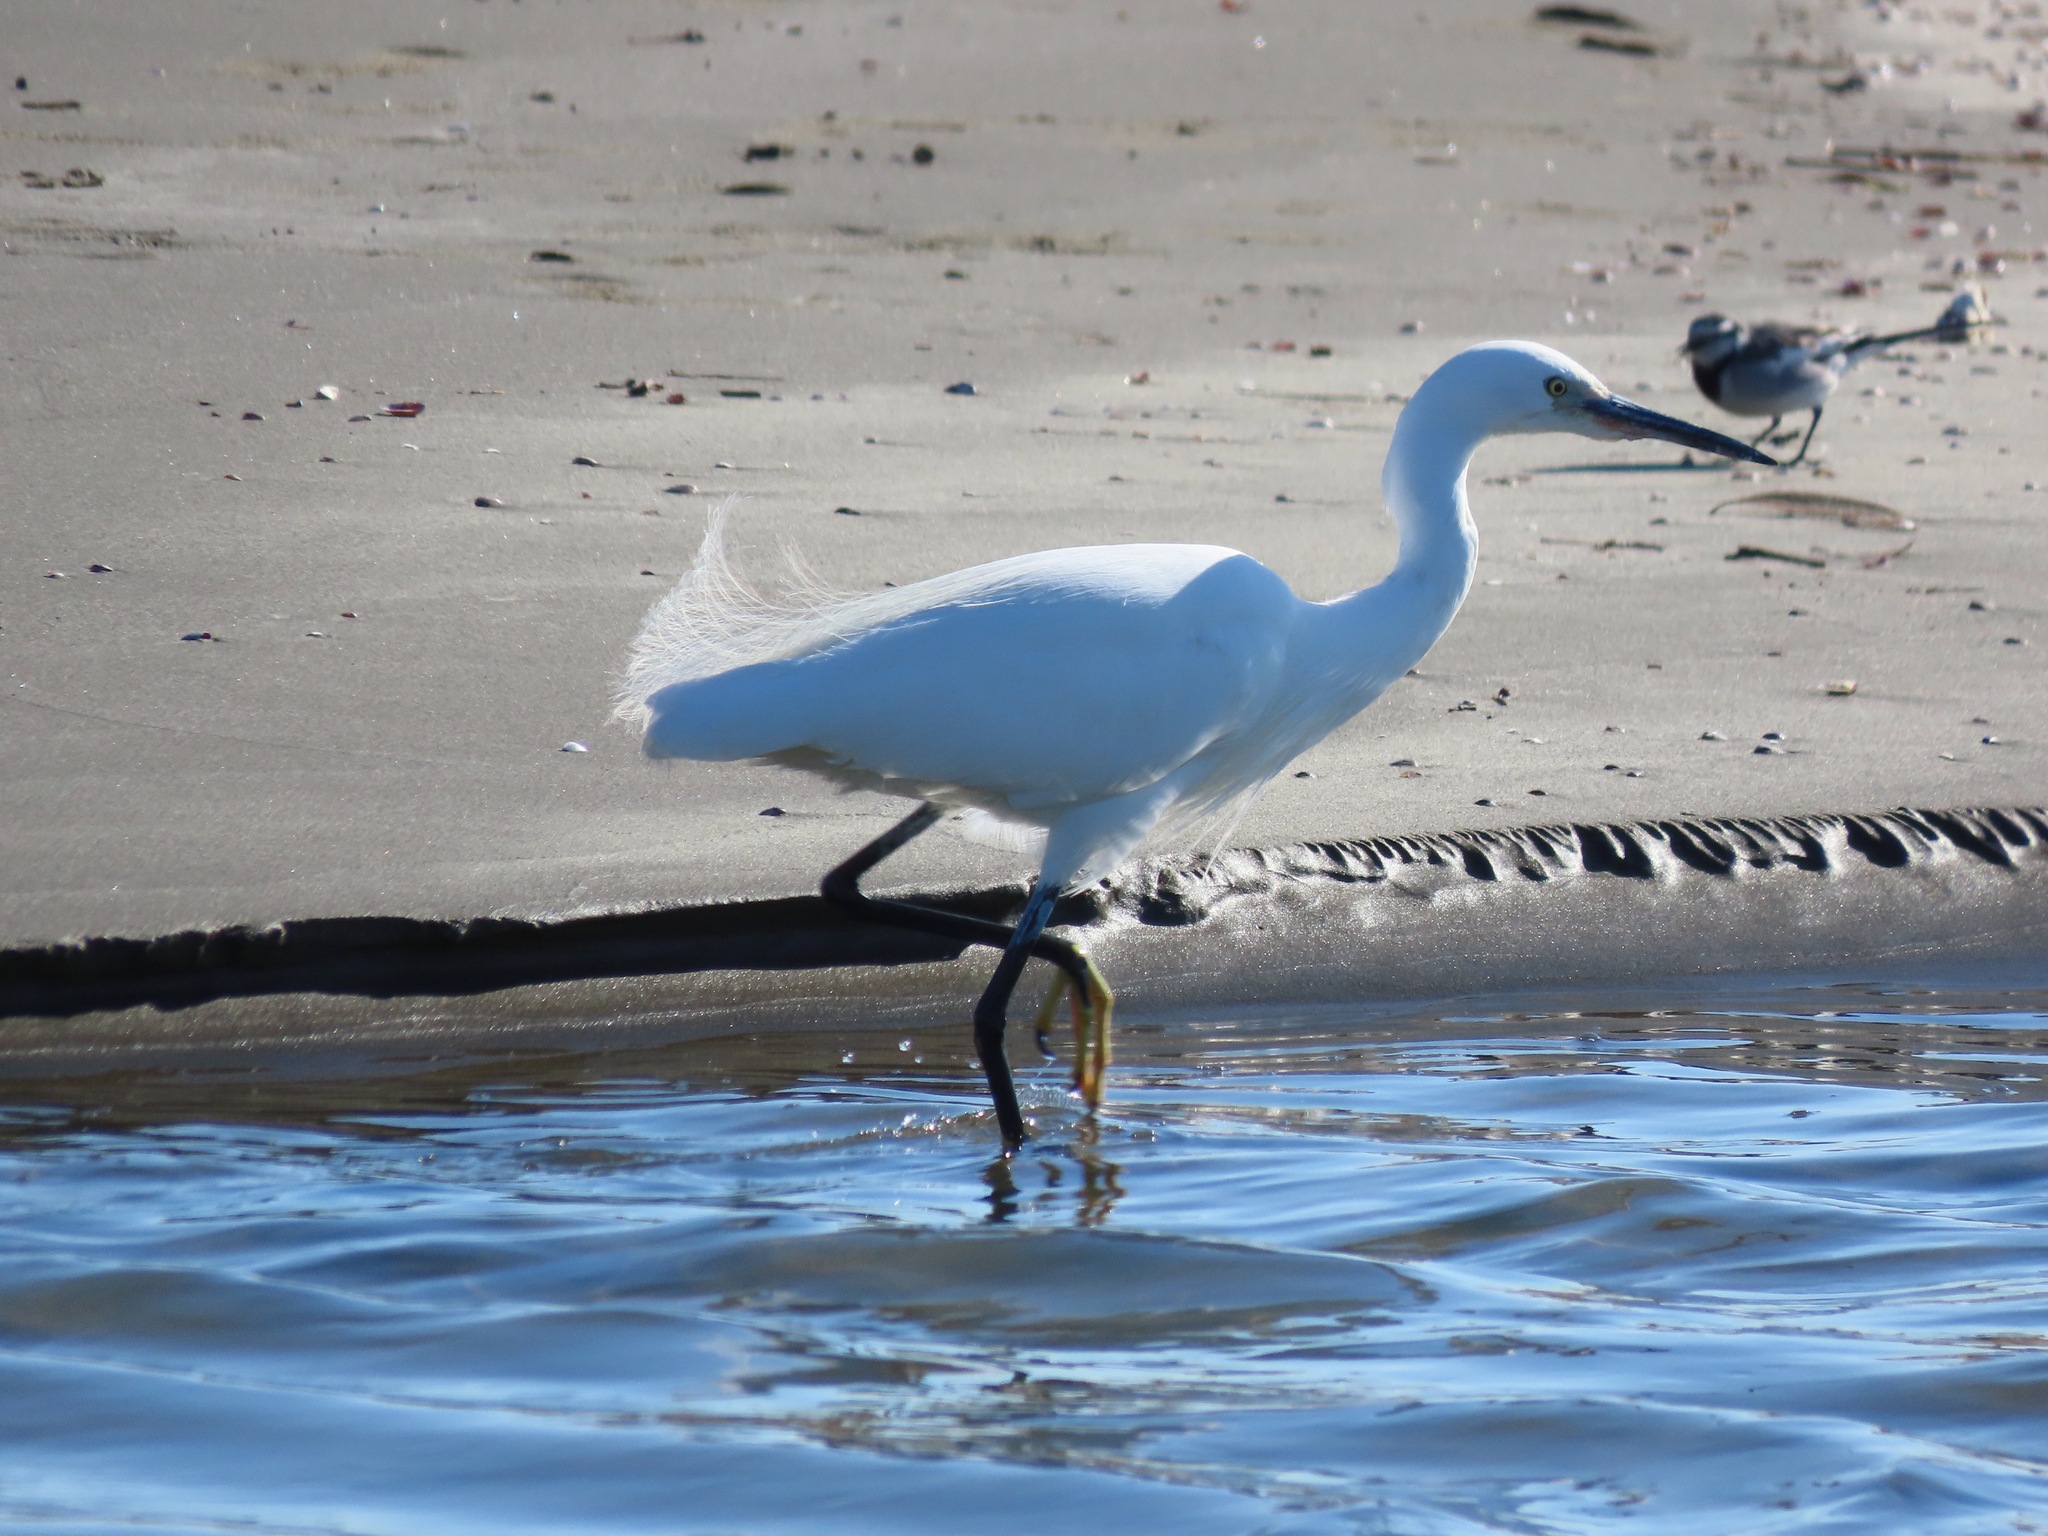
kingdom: Animalia
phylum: Chordata
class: Aves
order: Pelecaniformes
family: Ardeidae
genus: Egretta
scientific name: Egretta garzetta
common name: Little egret
